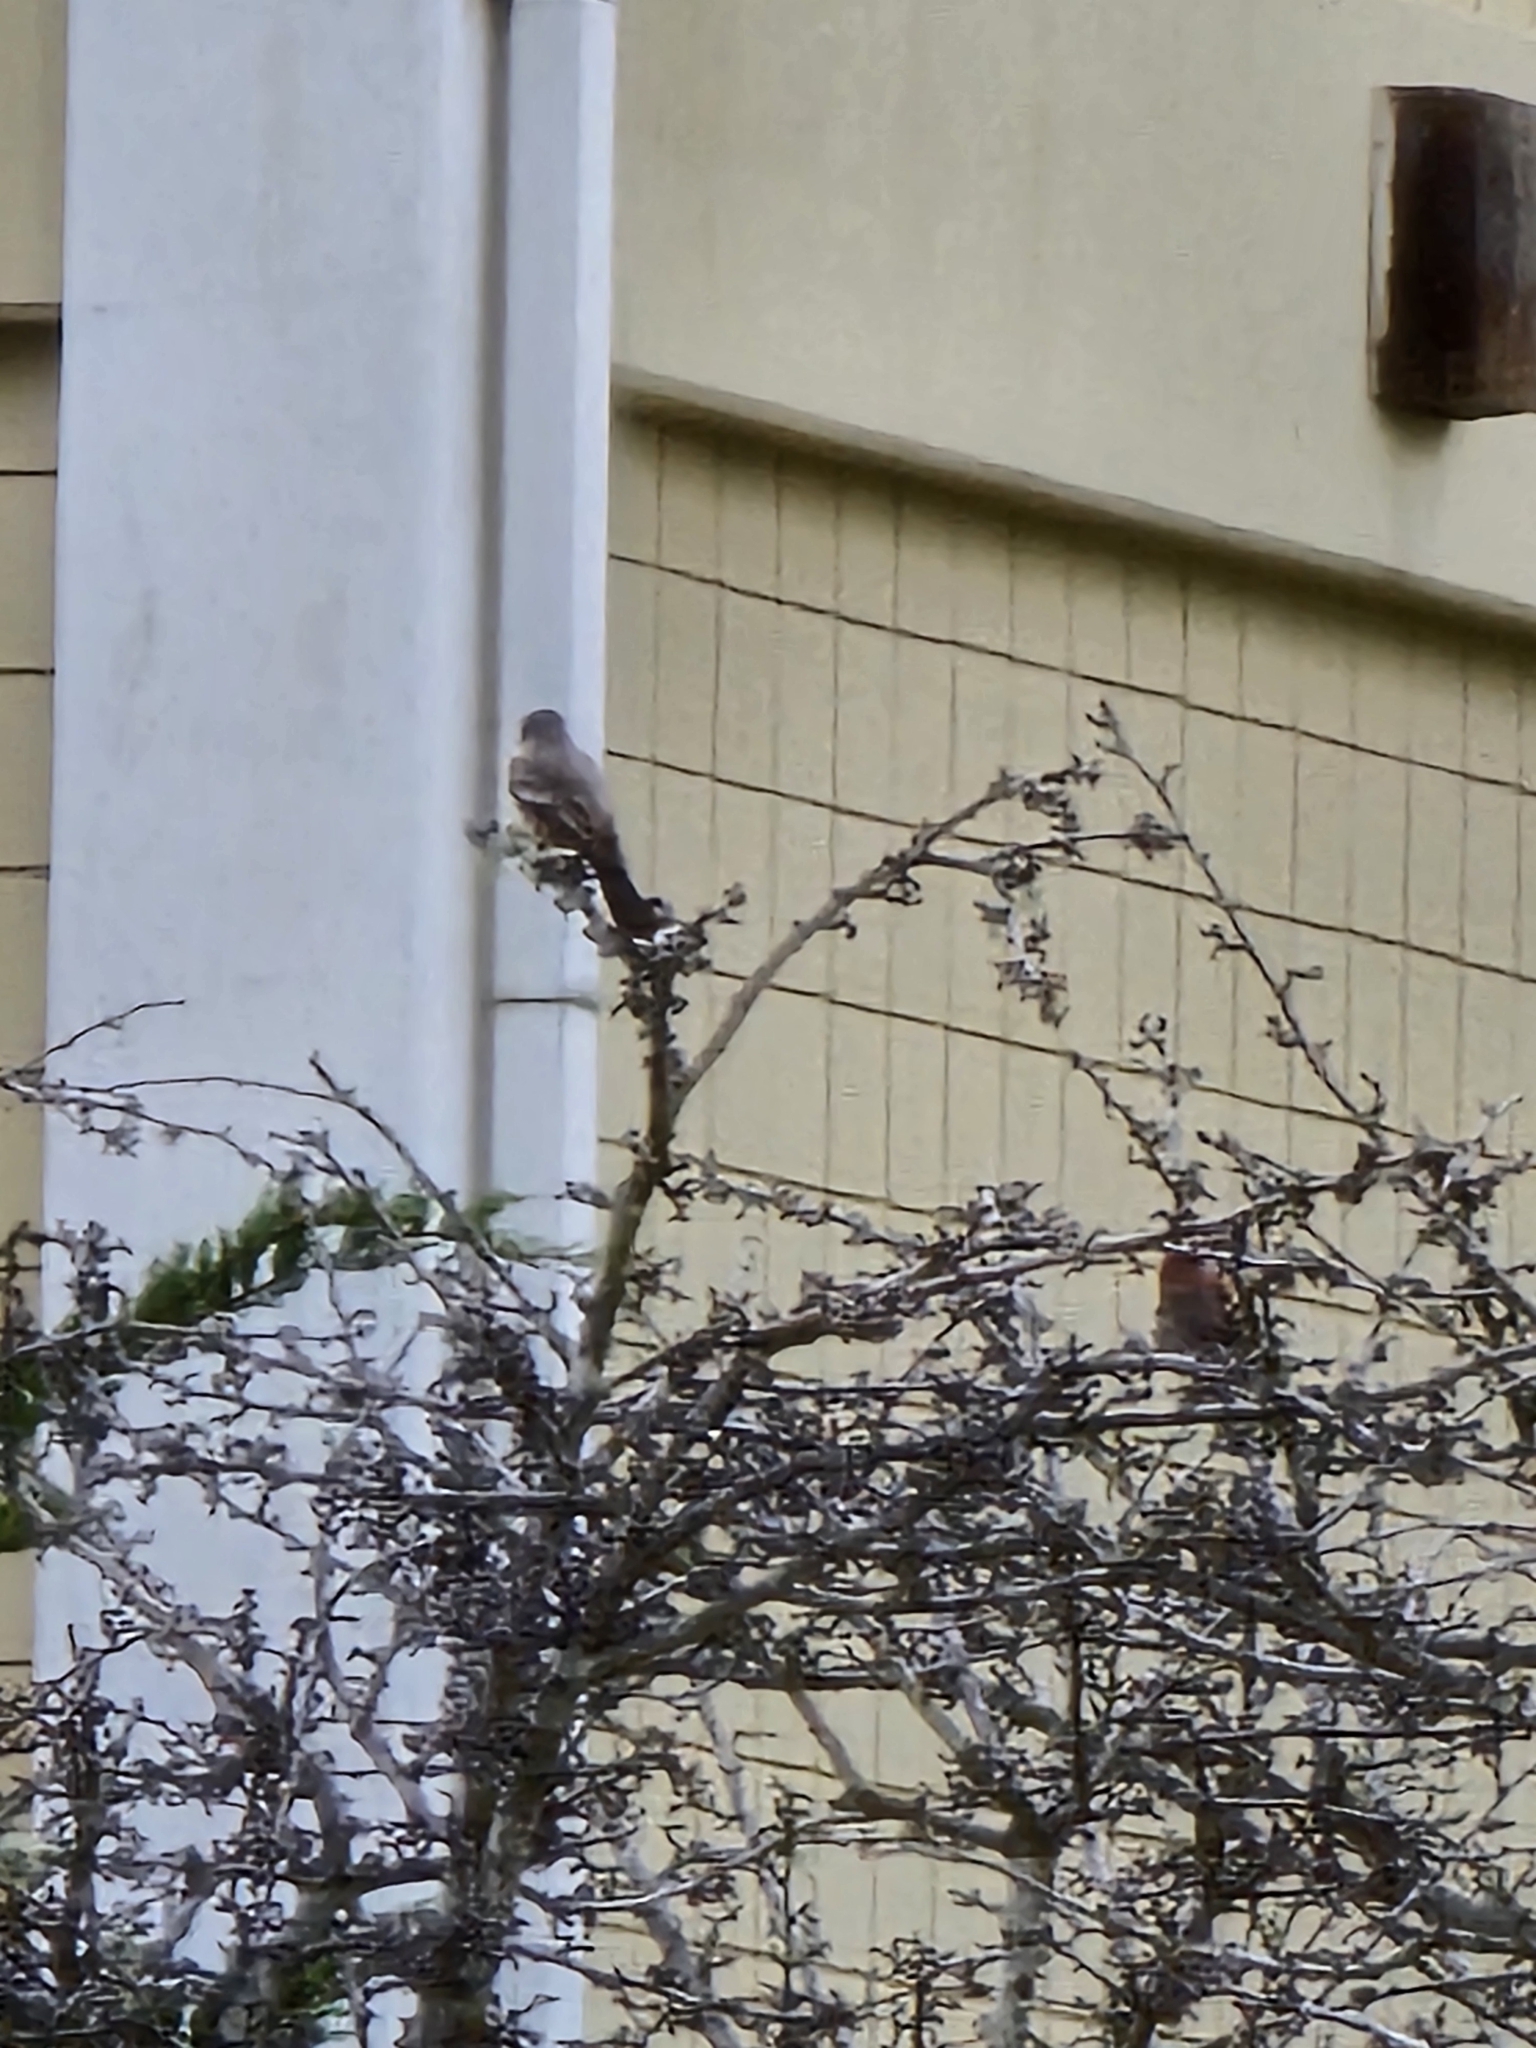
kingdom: Animalia
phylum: Chordata
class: Aves
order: Passeriformes
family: Tyrannidae
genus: Sayornis
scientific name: Sayornis saya
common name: Say's phoebe
